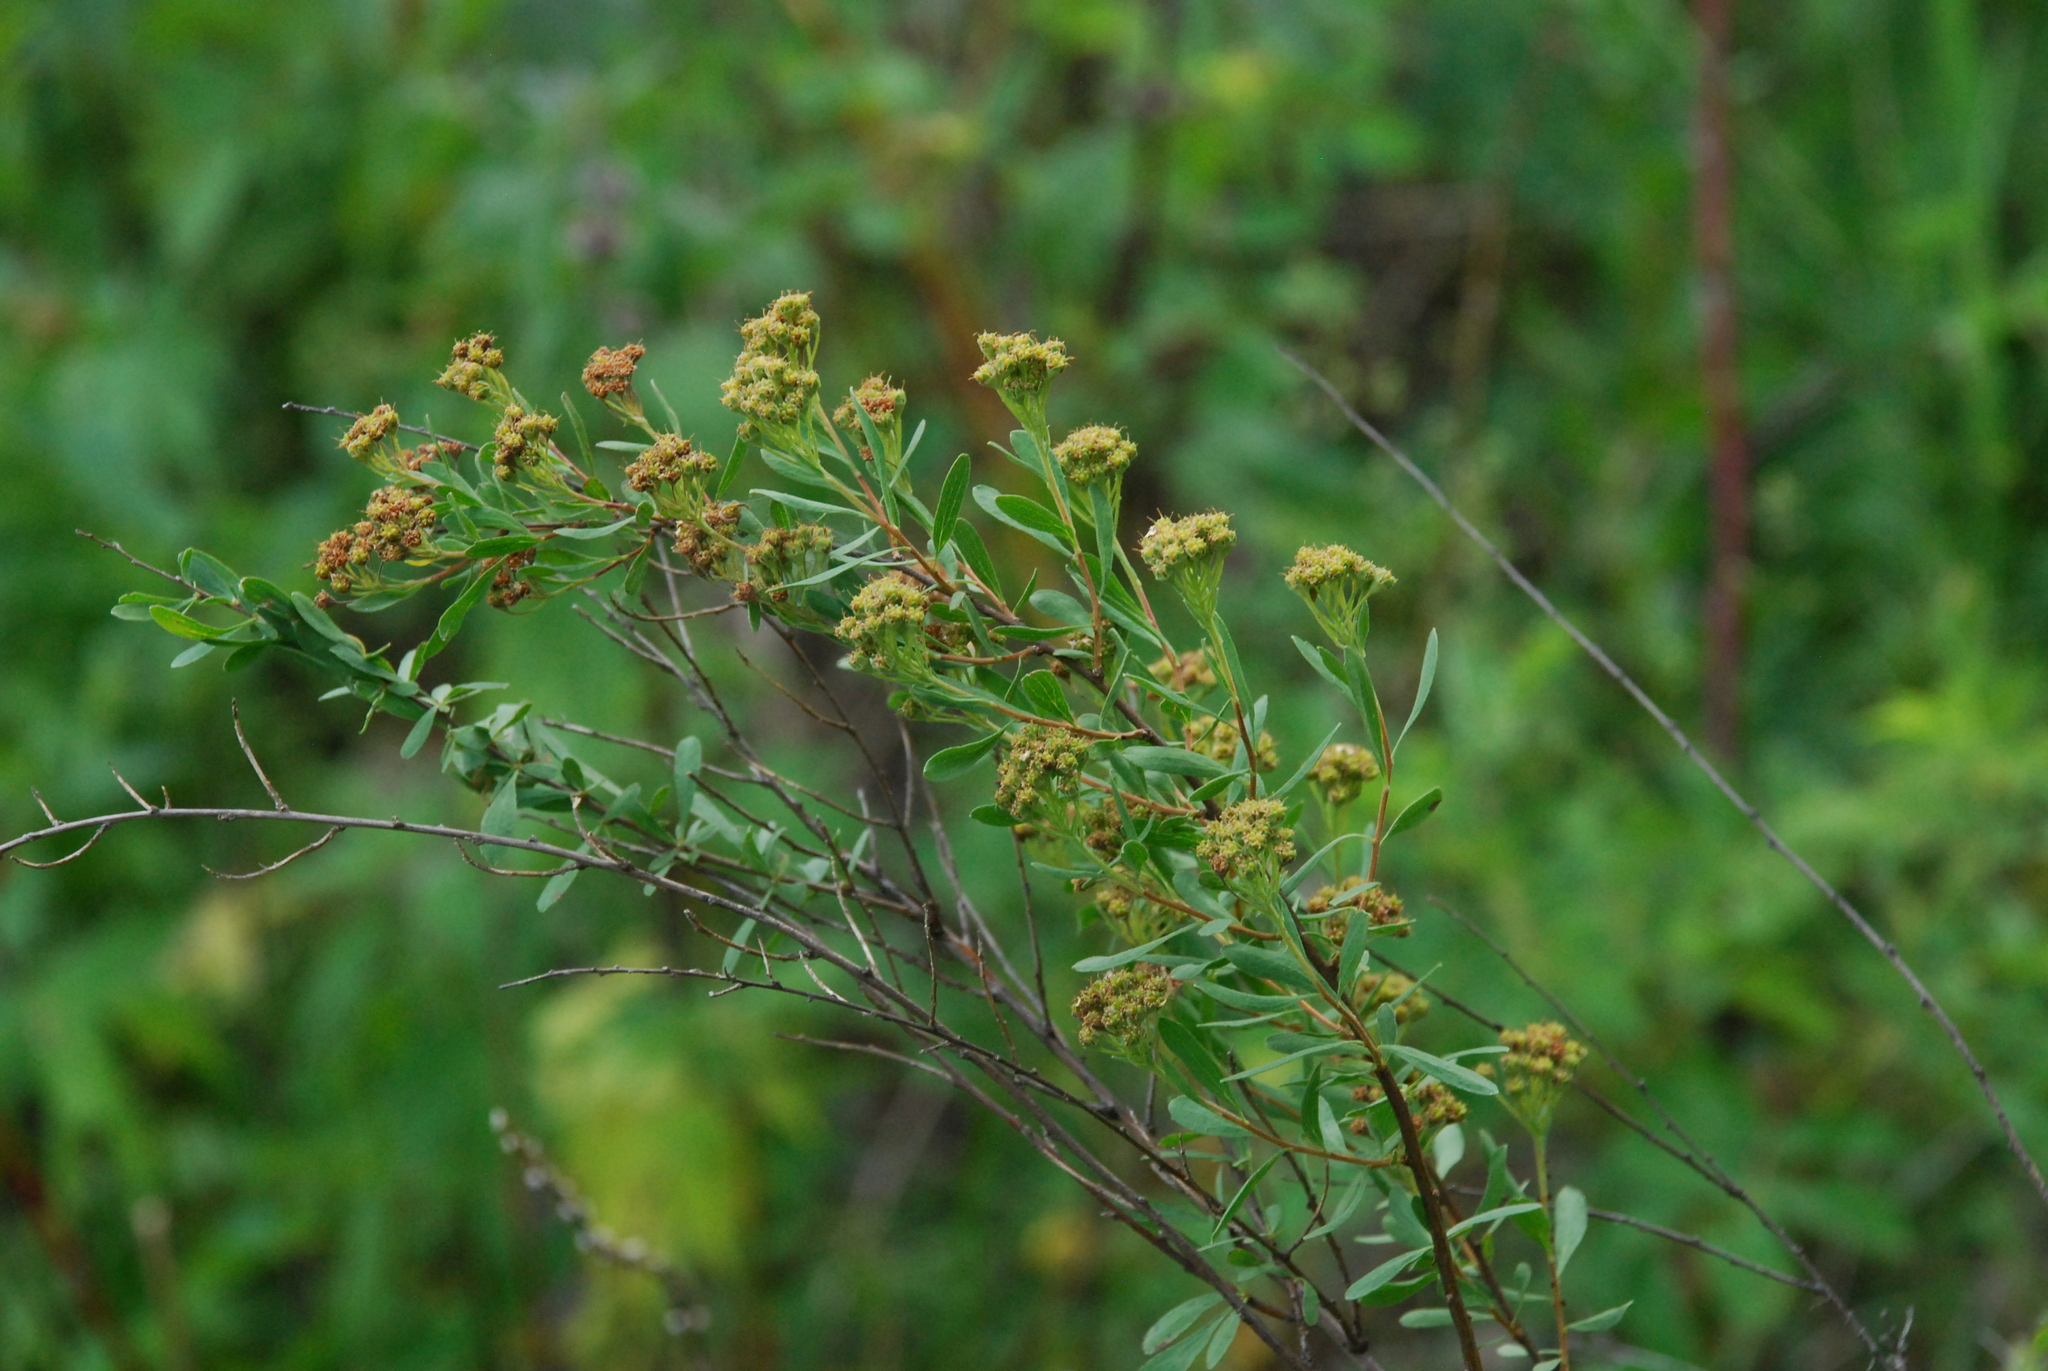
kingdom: Plantae
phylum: Tracheophyta
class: Magnoliopsida
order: Rosales
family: Rosaceae
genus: Spiraea
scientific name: Spiraea crenata
